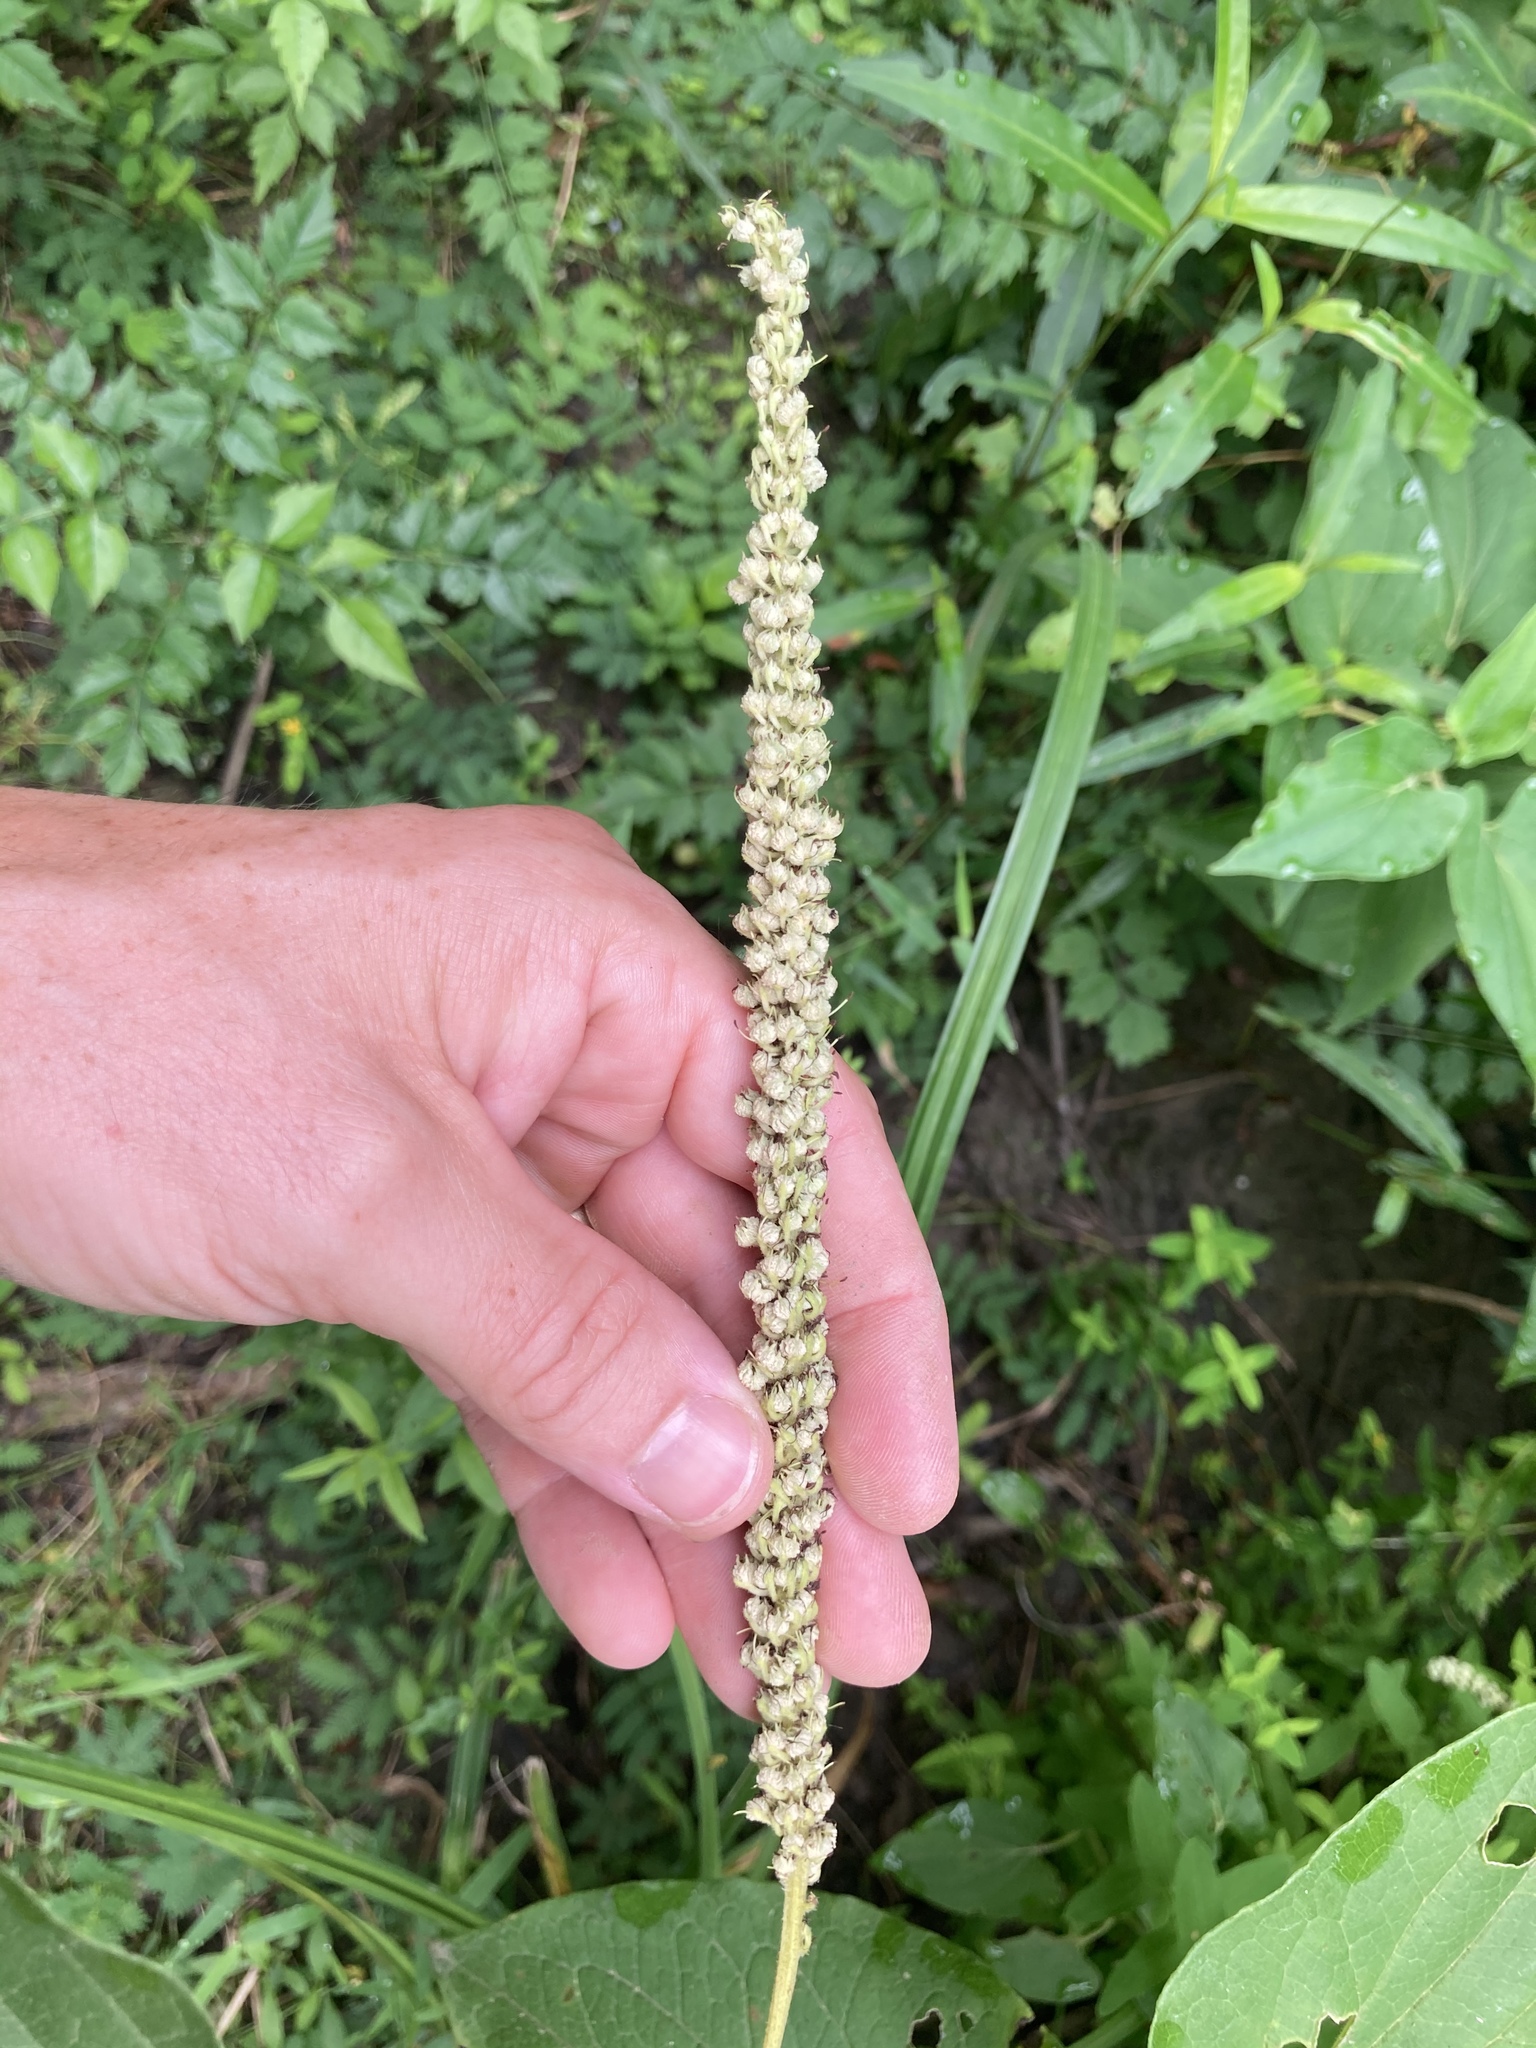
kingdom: Plantae
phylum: Tracheophyta
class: Magnoliopsida
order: Piperales
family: Saururaceae
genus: Saururus
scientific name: Saururus cernuus
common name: Lizard's-tail
